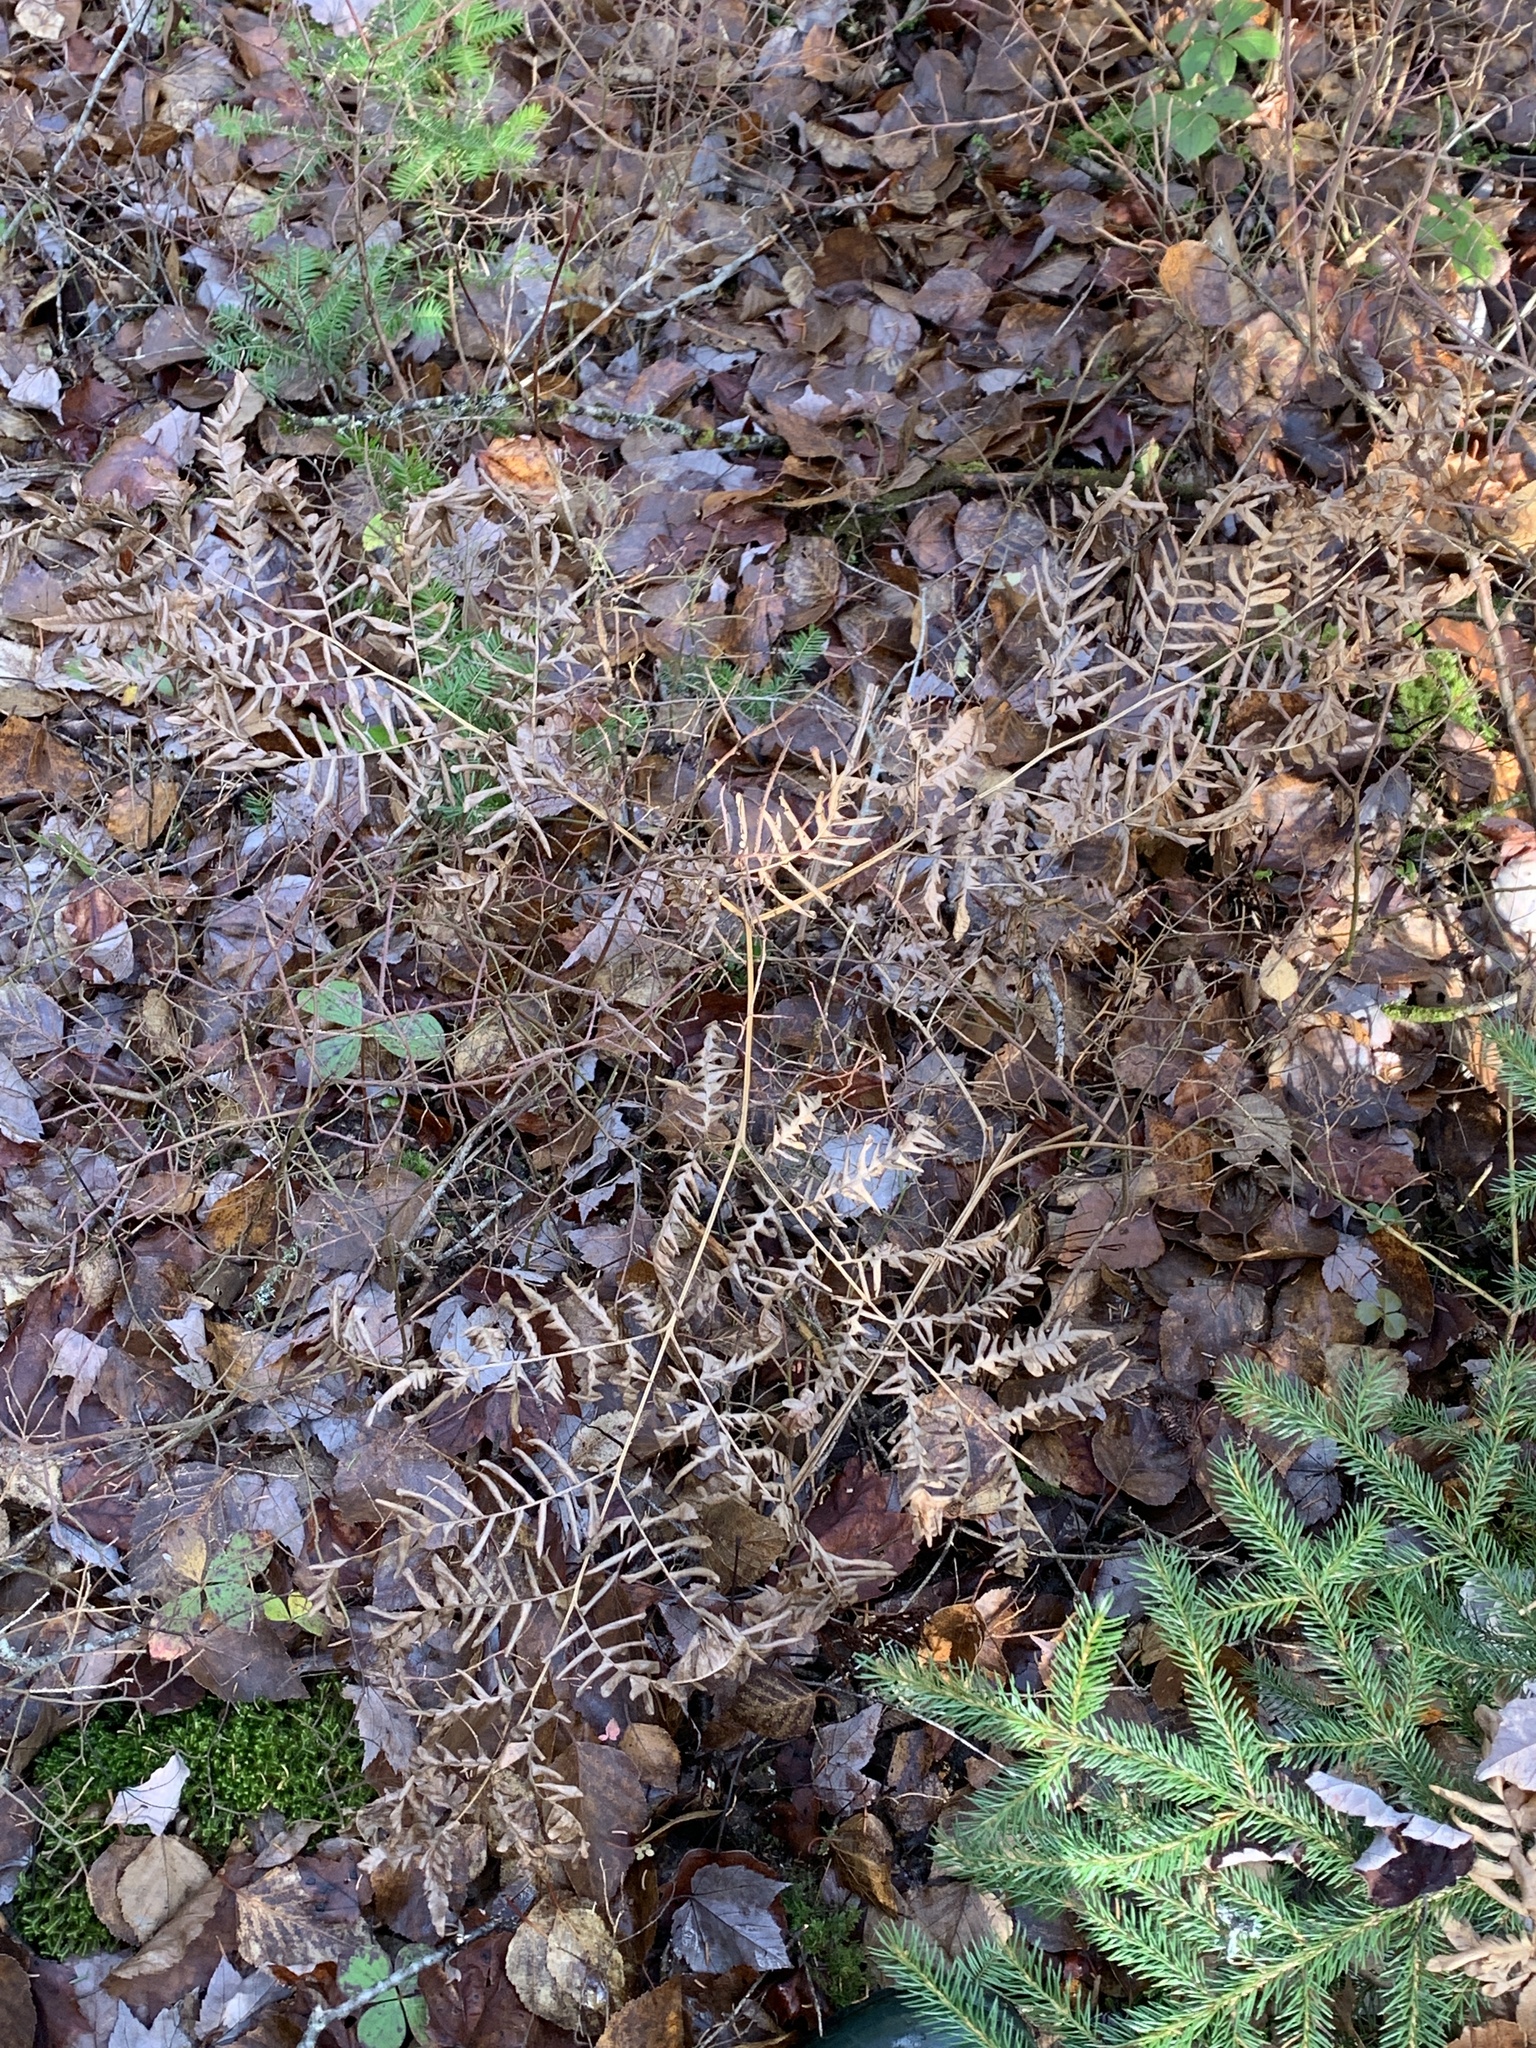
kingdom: Plantae
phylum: Tracheophyta
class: Polypodiopsida
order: Polypodiales
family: Dennstaedtiaceae
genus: Pteridium
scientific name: Pteridium aquilinum
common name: Bracken
